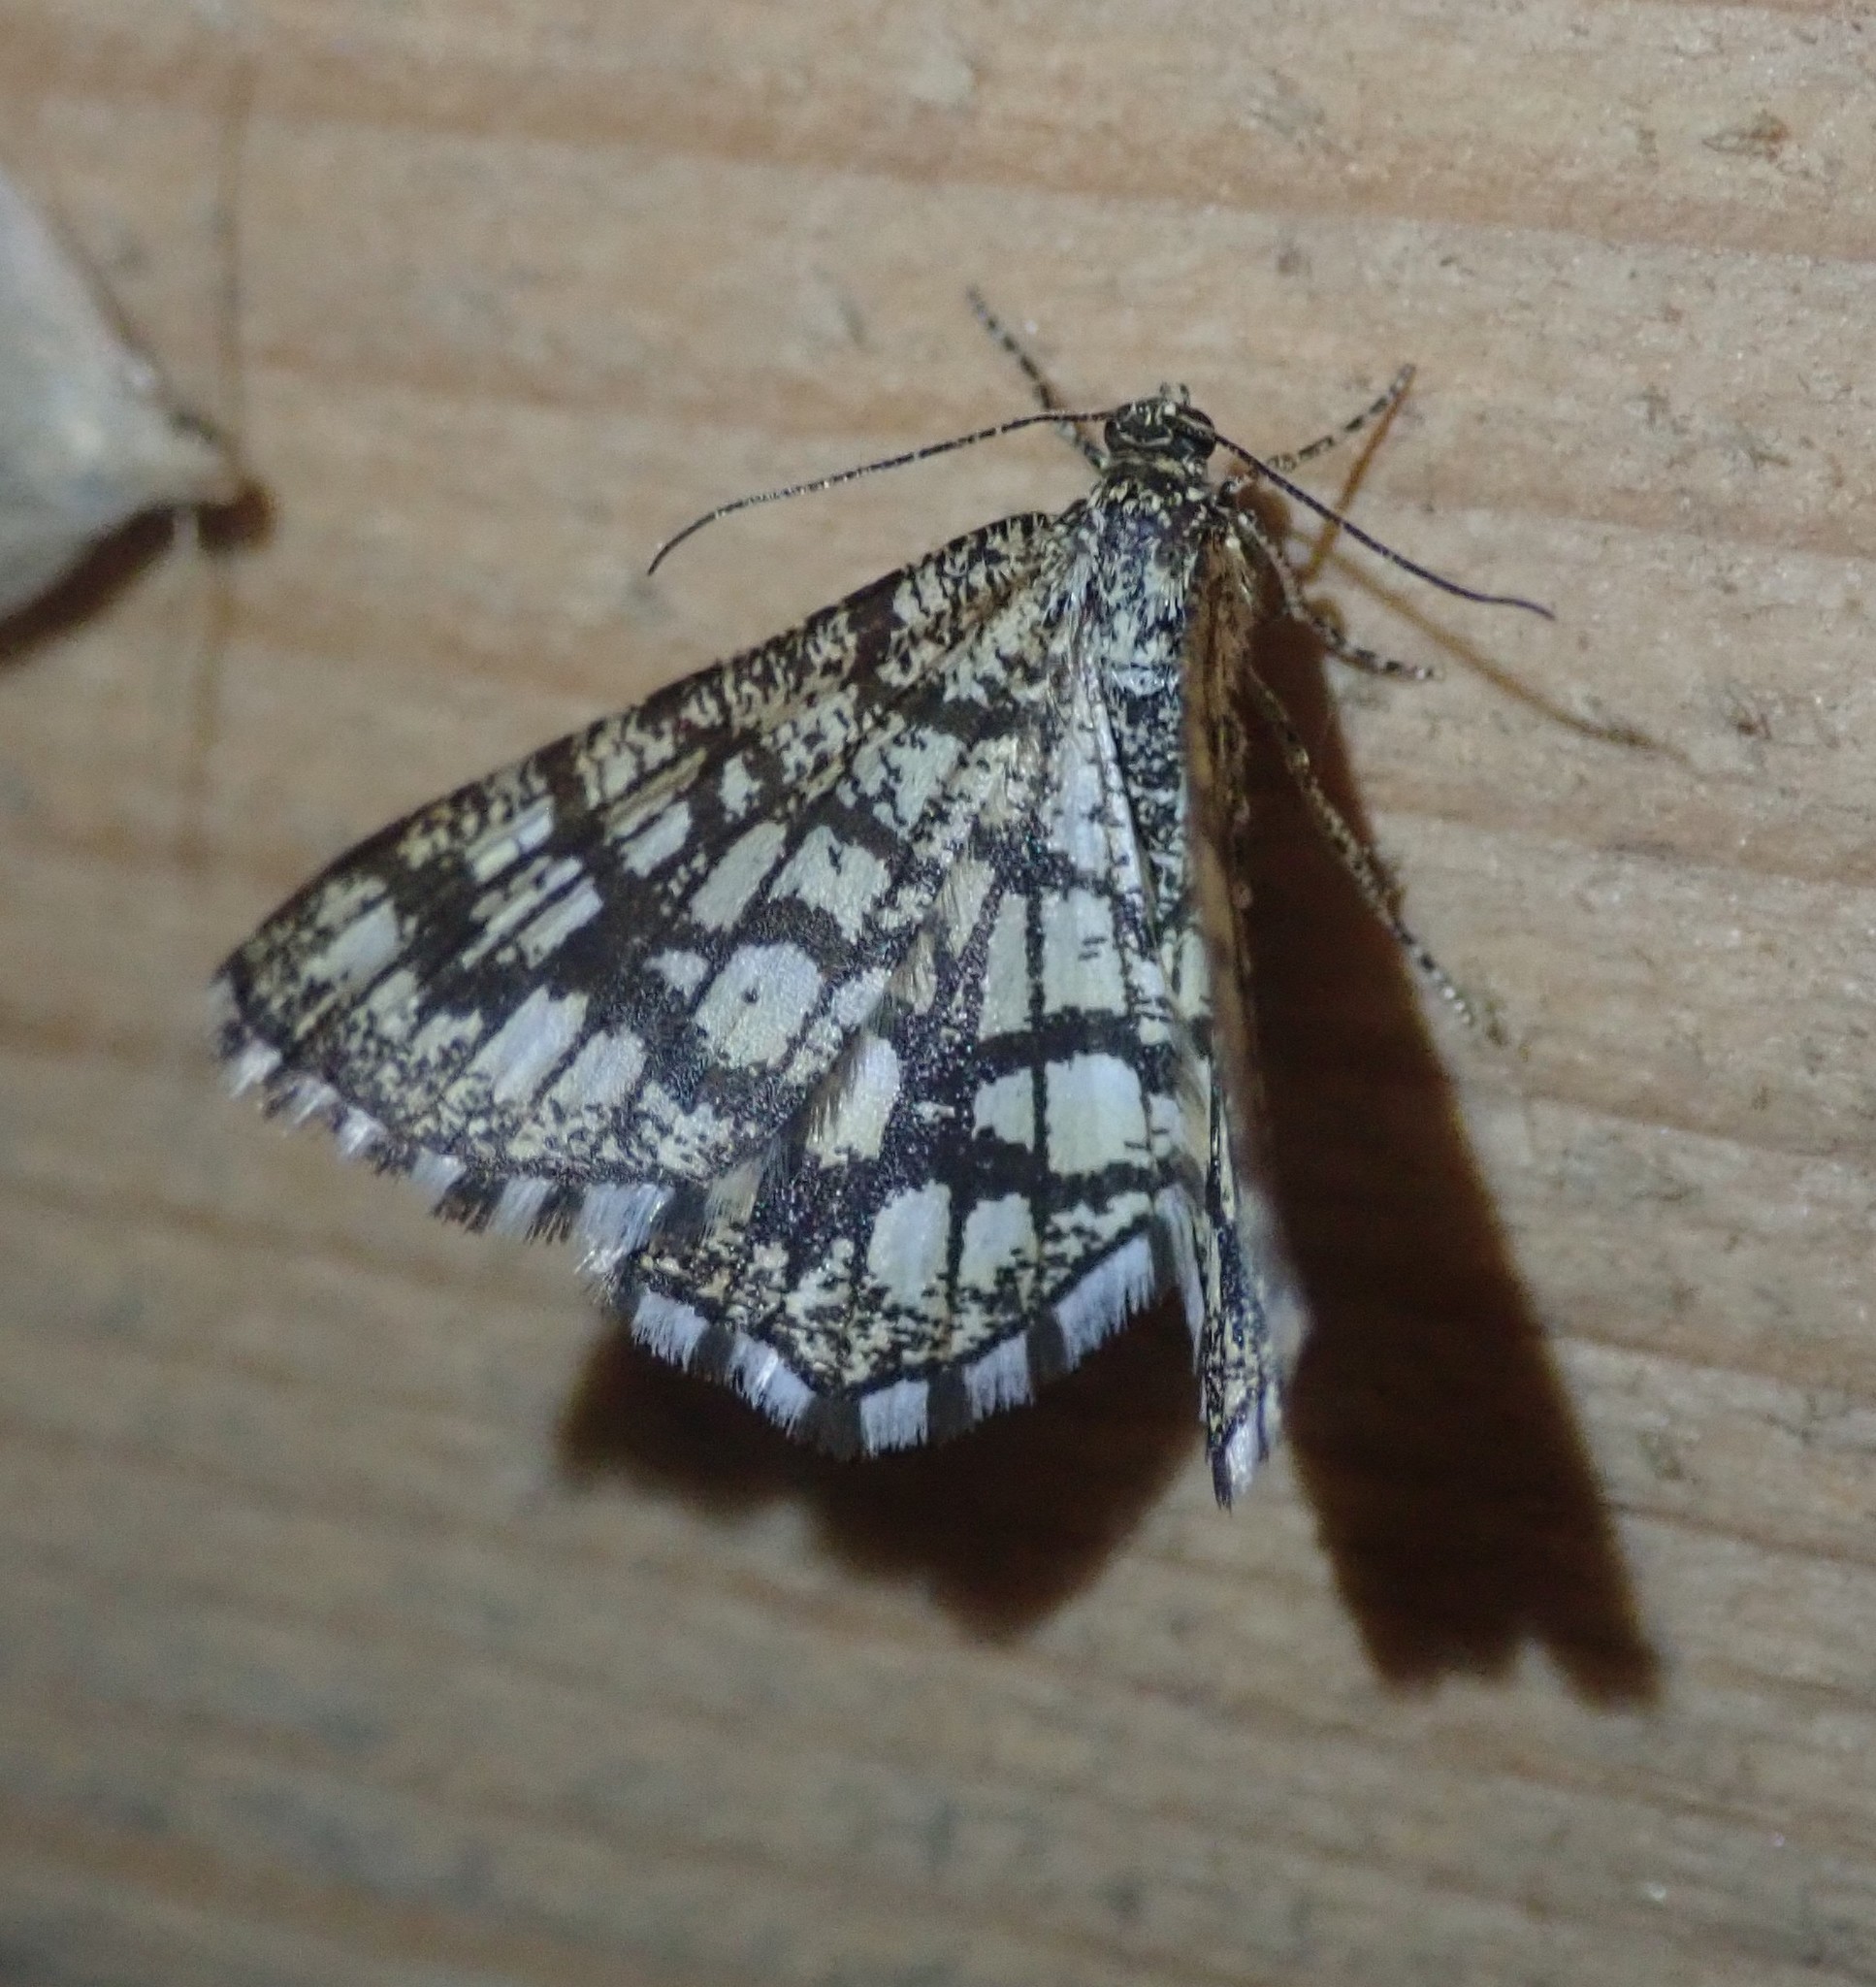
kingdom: Animalia
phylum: Arthropoda
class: Insecta
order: Lepidoptera
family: Geometridae
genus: Chiasmia
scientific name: Chiasmia clathrata
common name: Latticed heath
